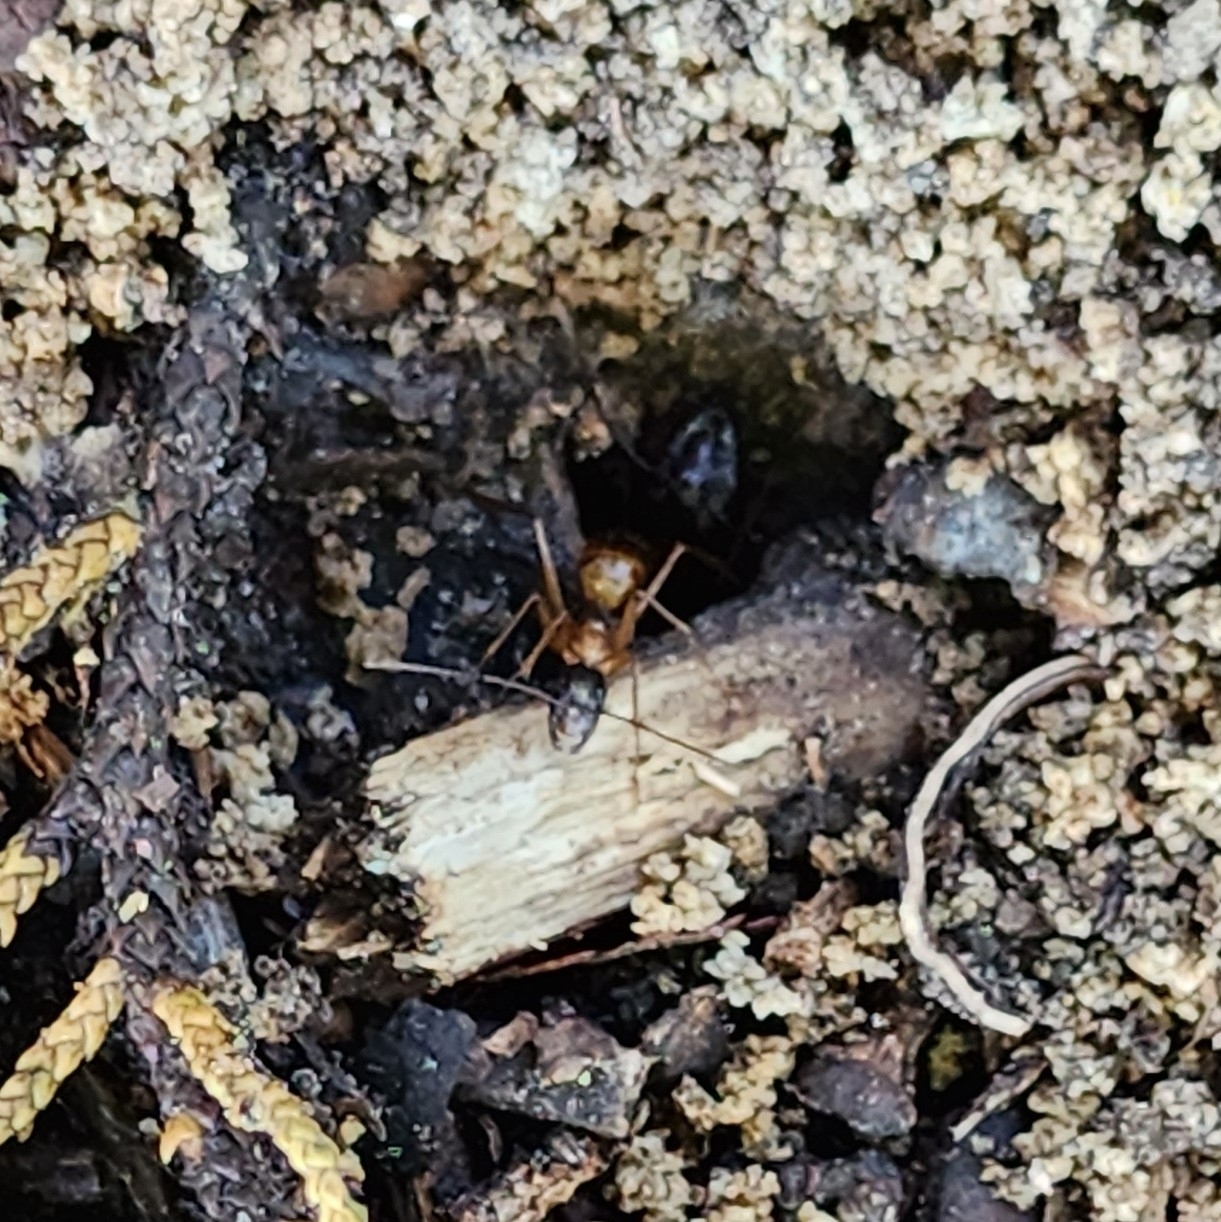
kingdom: Animalia
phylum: Arthropoda
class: Insecta
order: Hymenoptera
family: Formicidae
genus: Camponotus
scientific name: Camponotus americanus
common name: American carpenter ant
